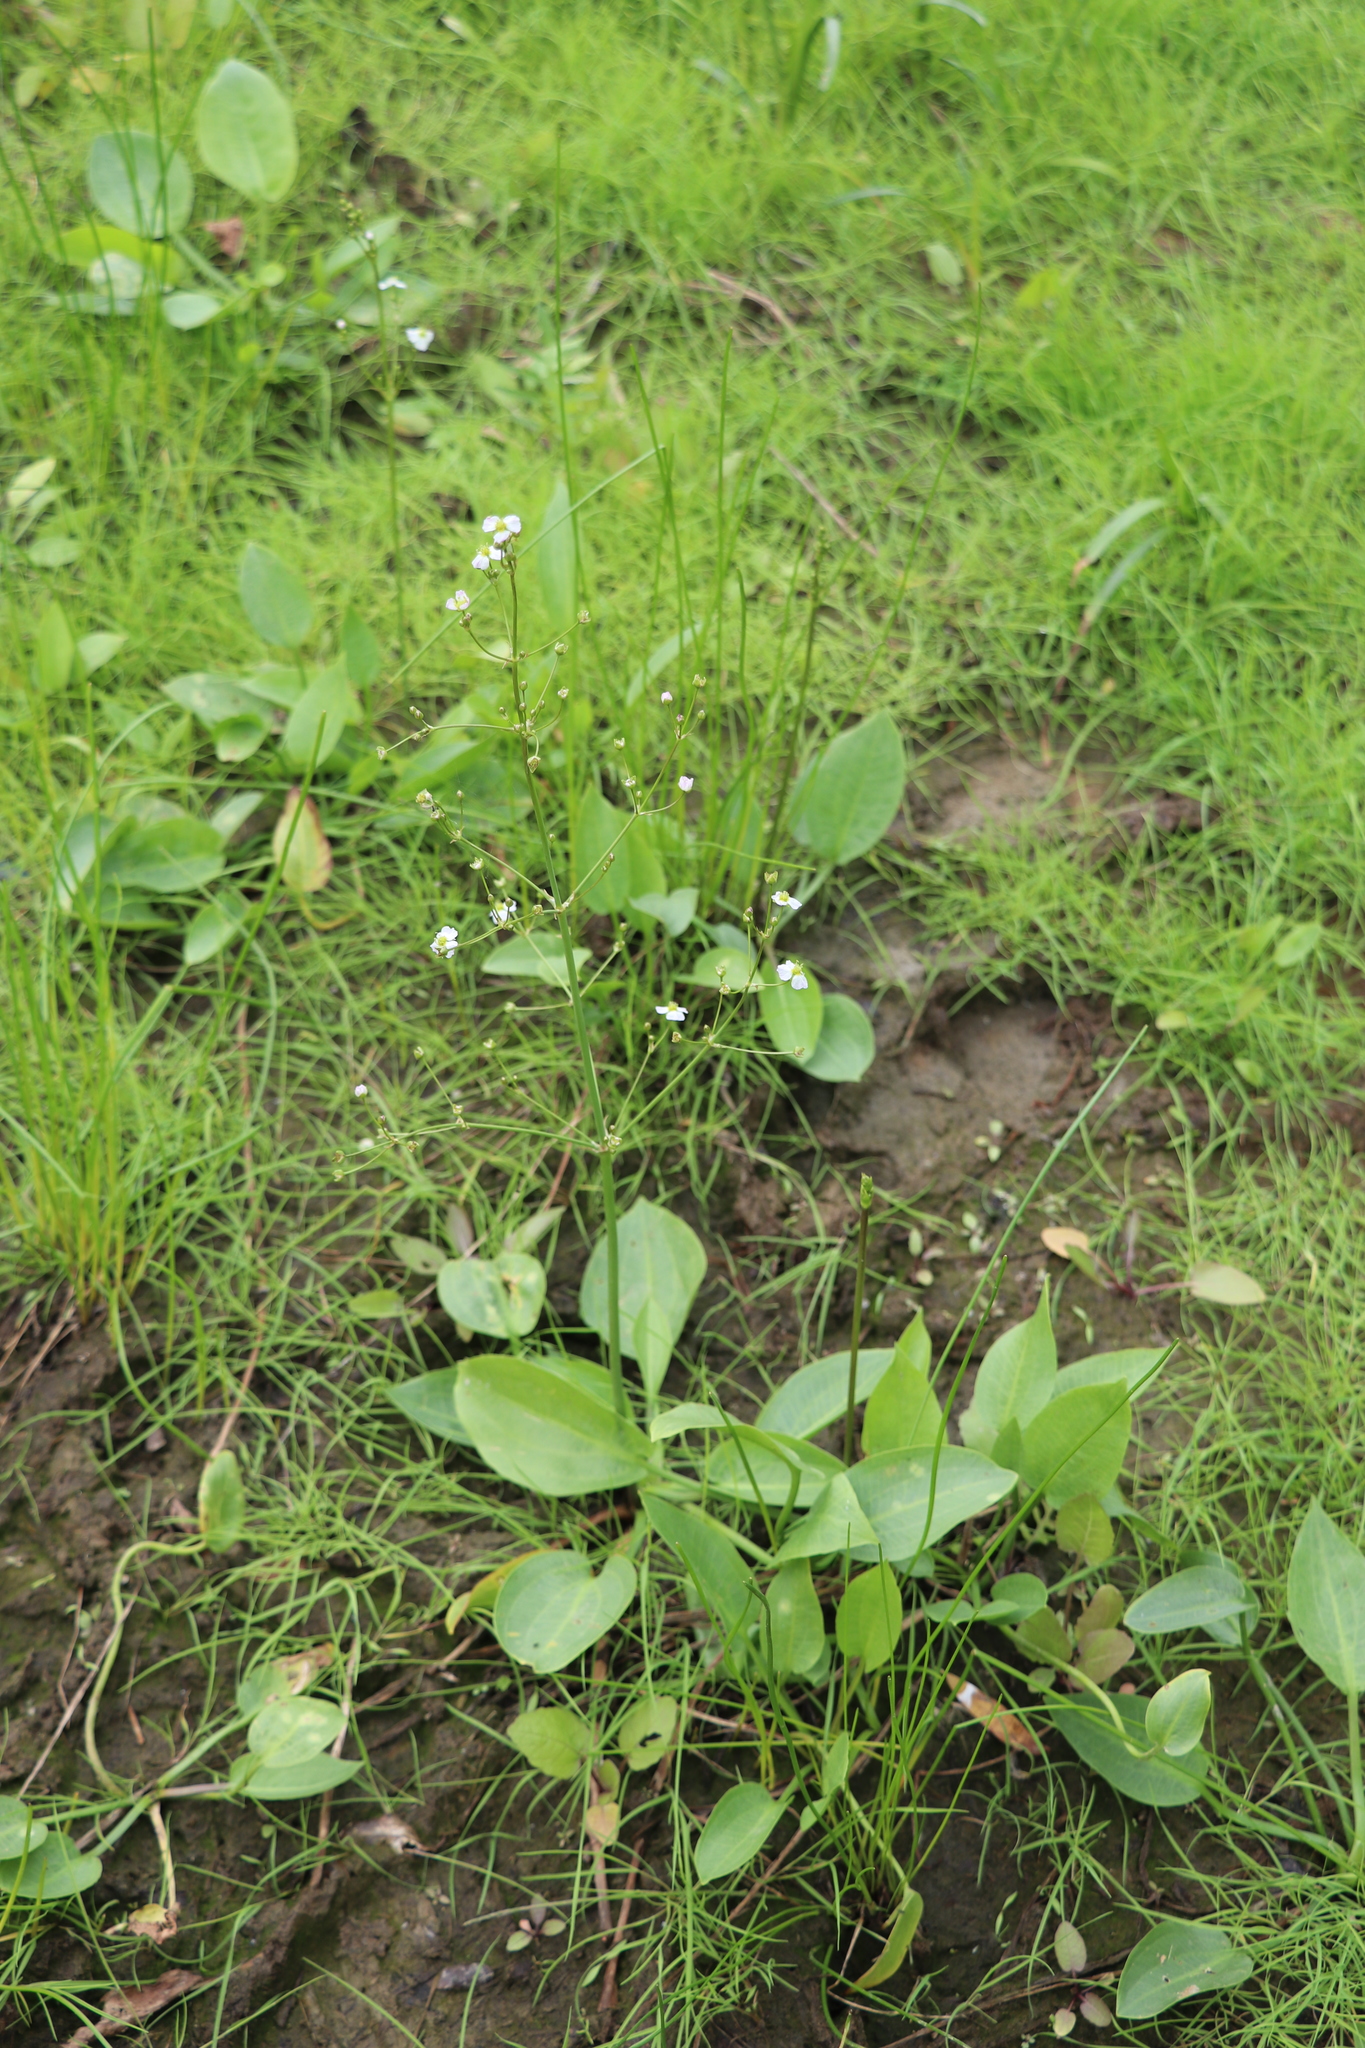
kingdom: Plantae
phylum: Tracheophyta
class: Liliopsida
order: Alismatales
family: Alismataceae
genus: Alisma
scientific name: Alisma plantago-aquatica
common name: Water-plantain
